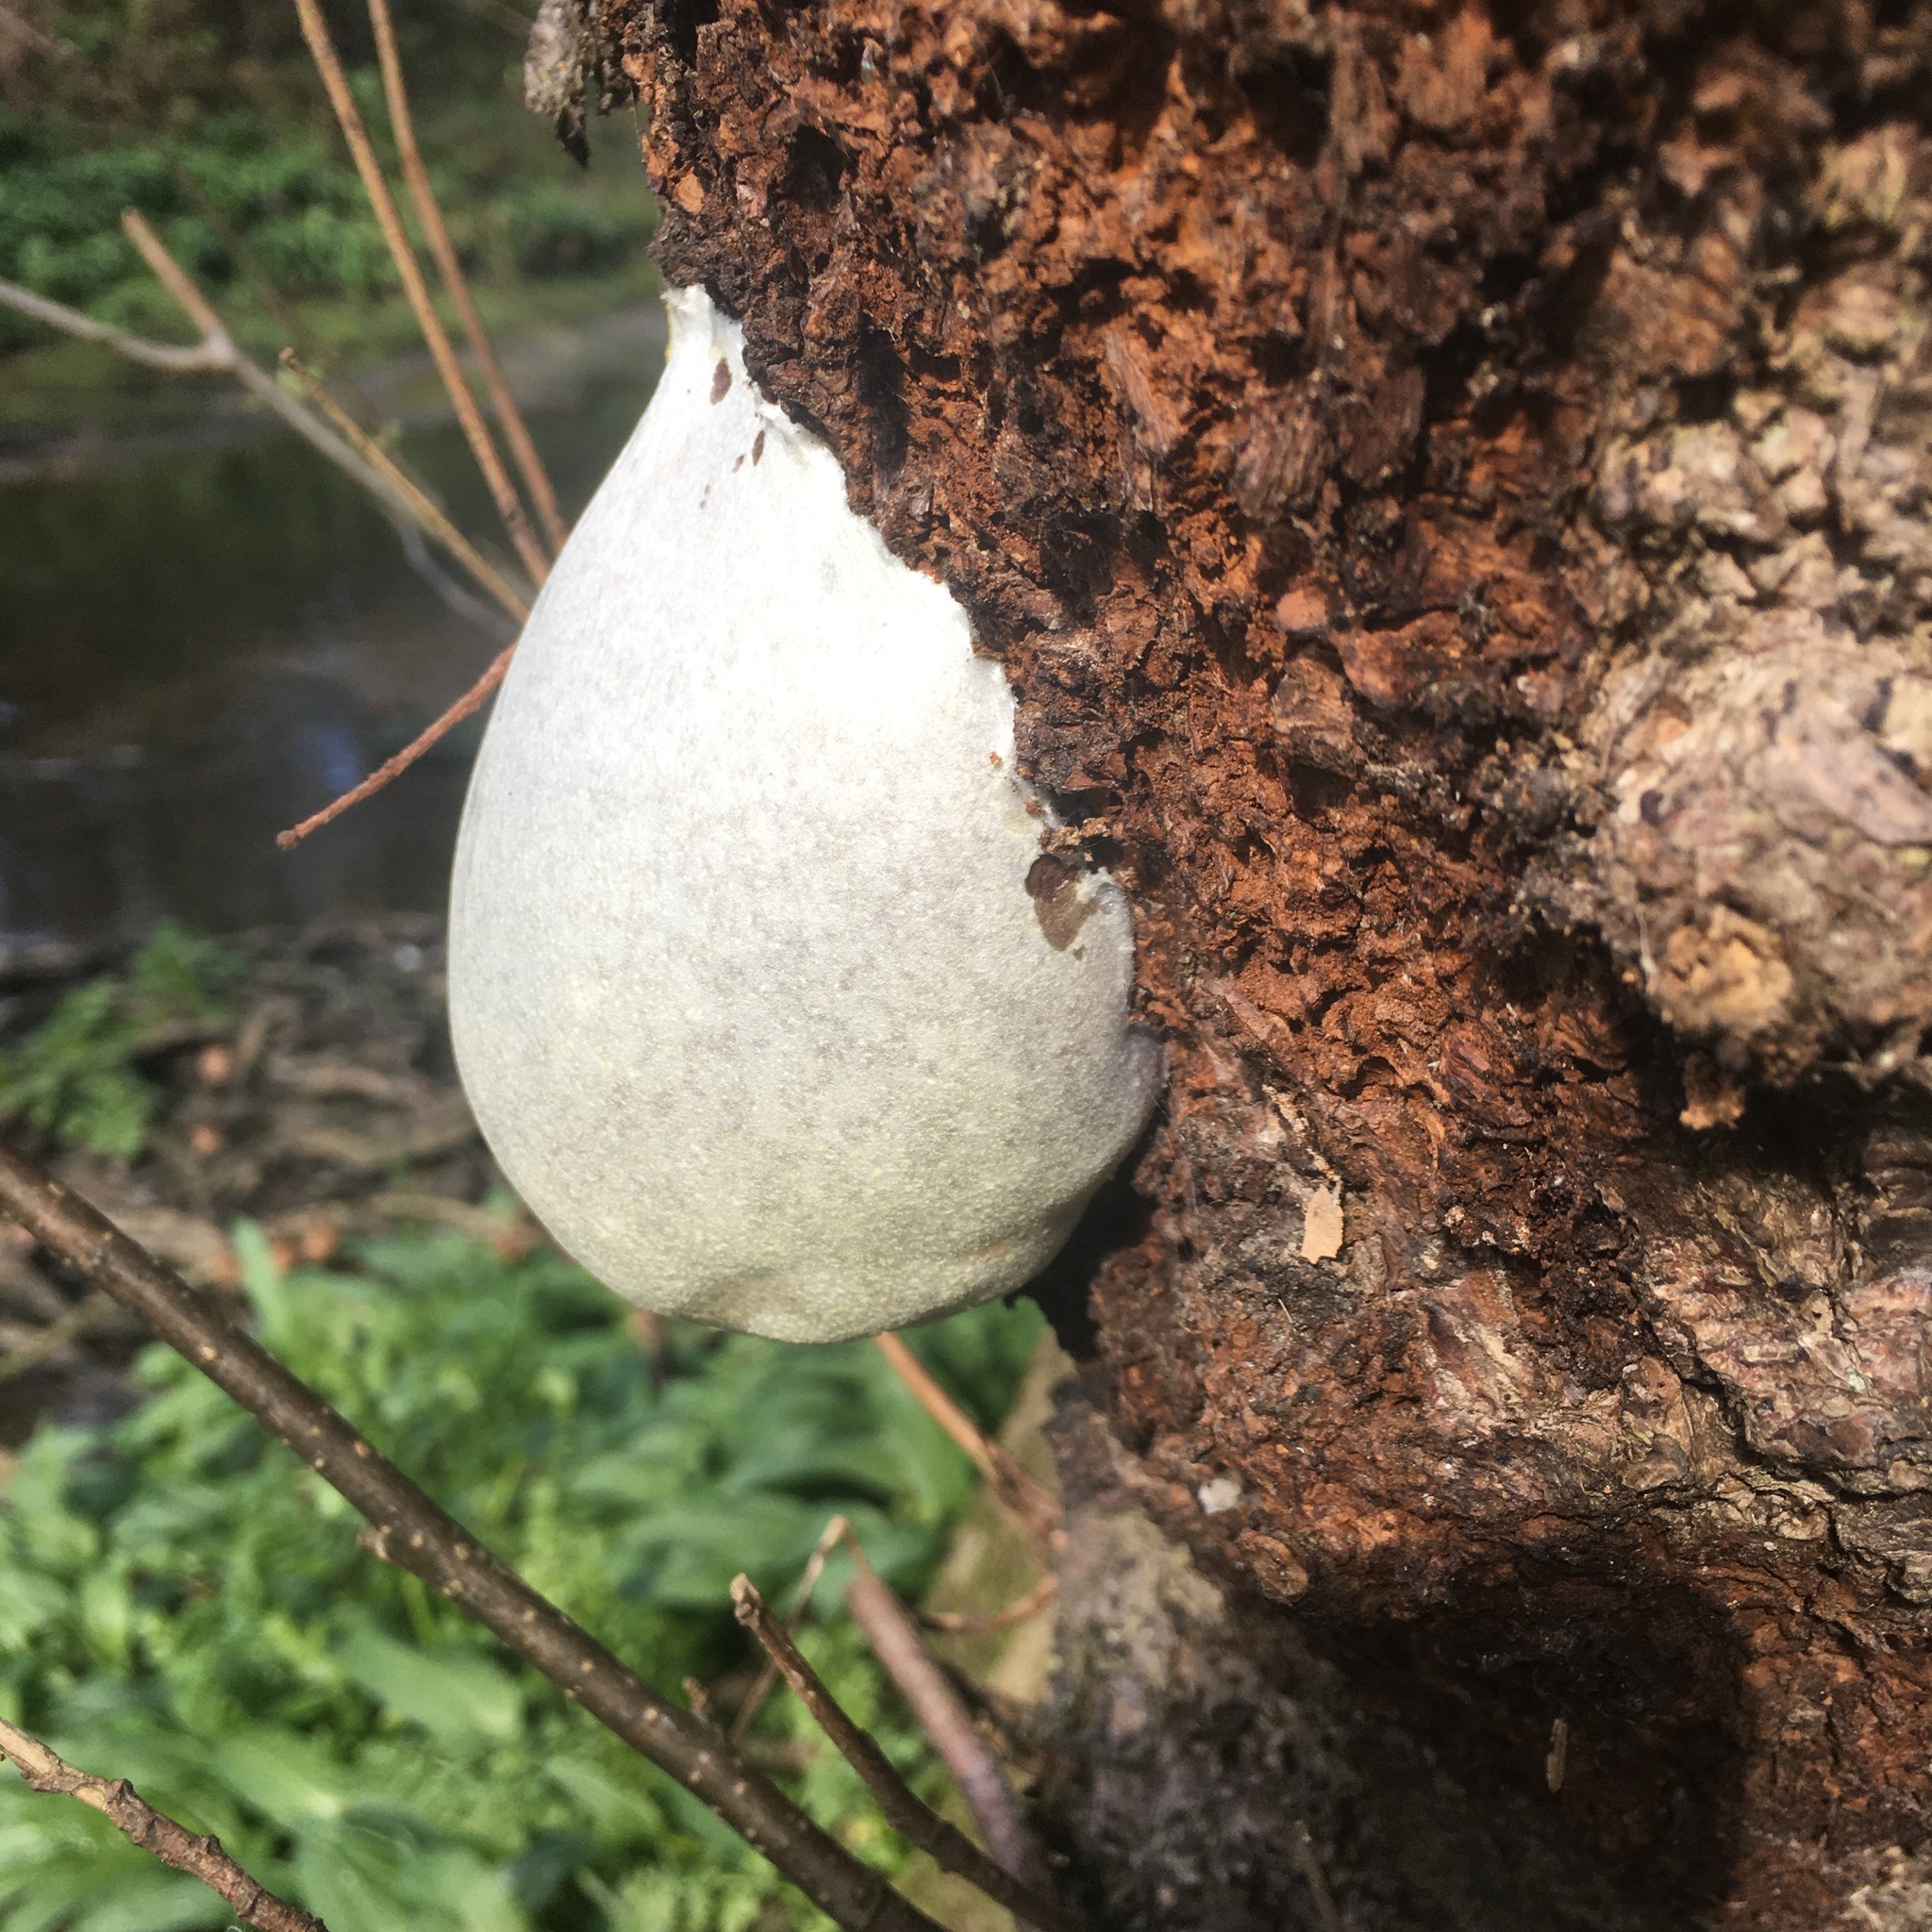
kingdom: Protozoa
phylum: Mycetozoa
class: Myxomycetes
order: Cribrariales
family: Tubiferaceae
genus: Reticularia
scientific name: Reticularia lycoperdon
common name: False puffball
